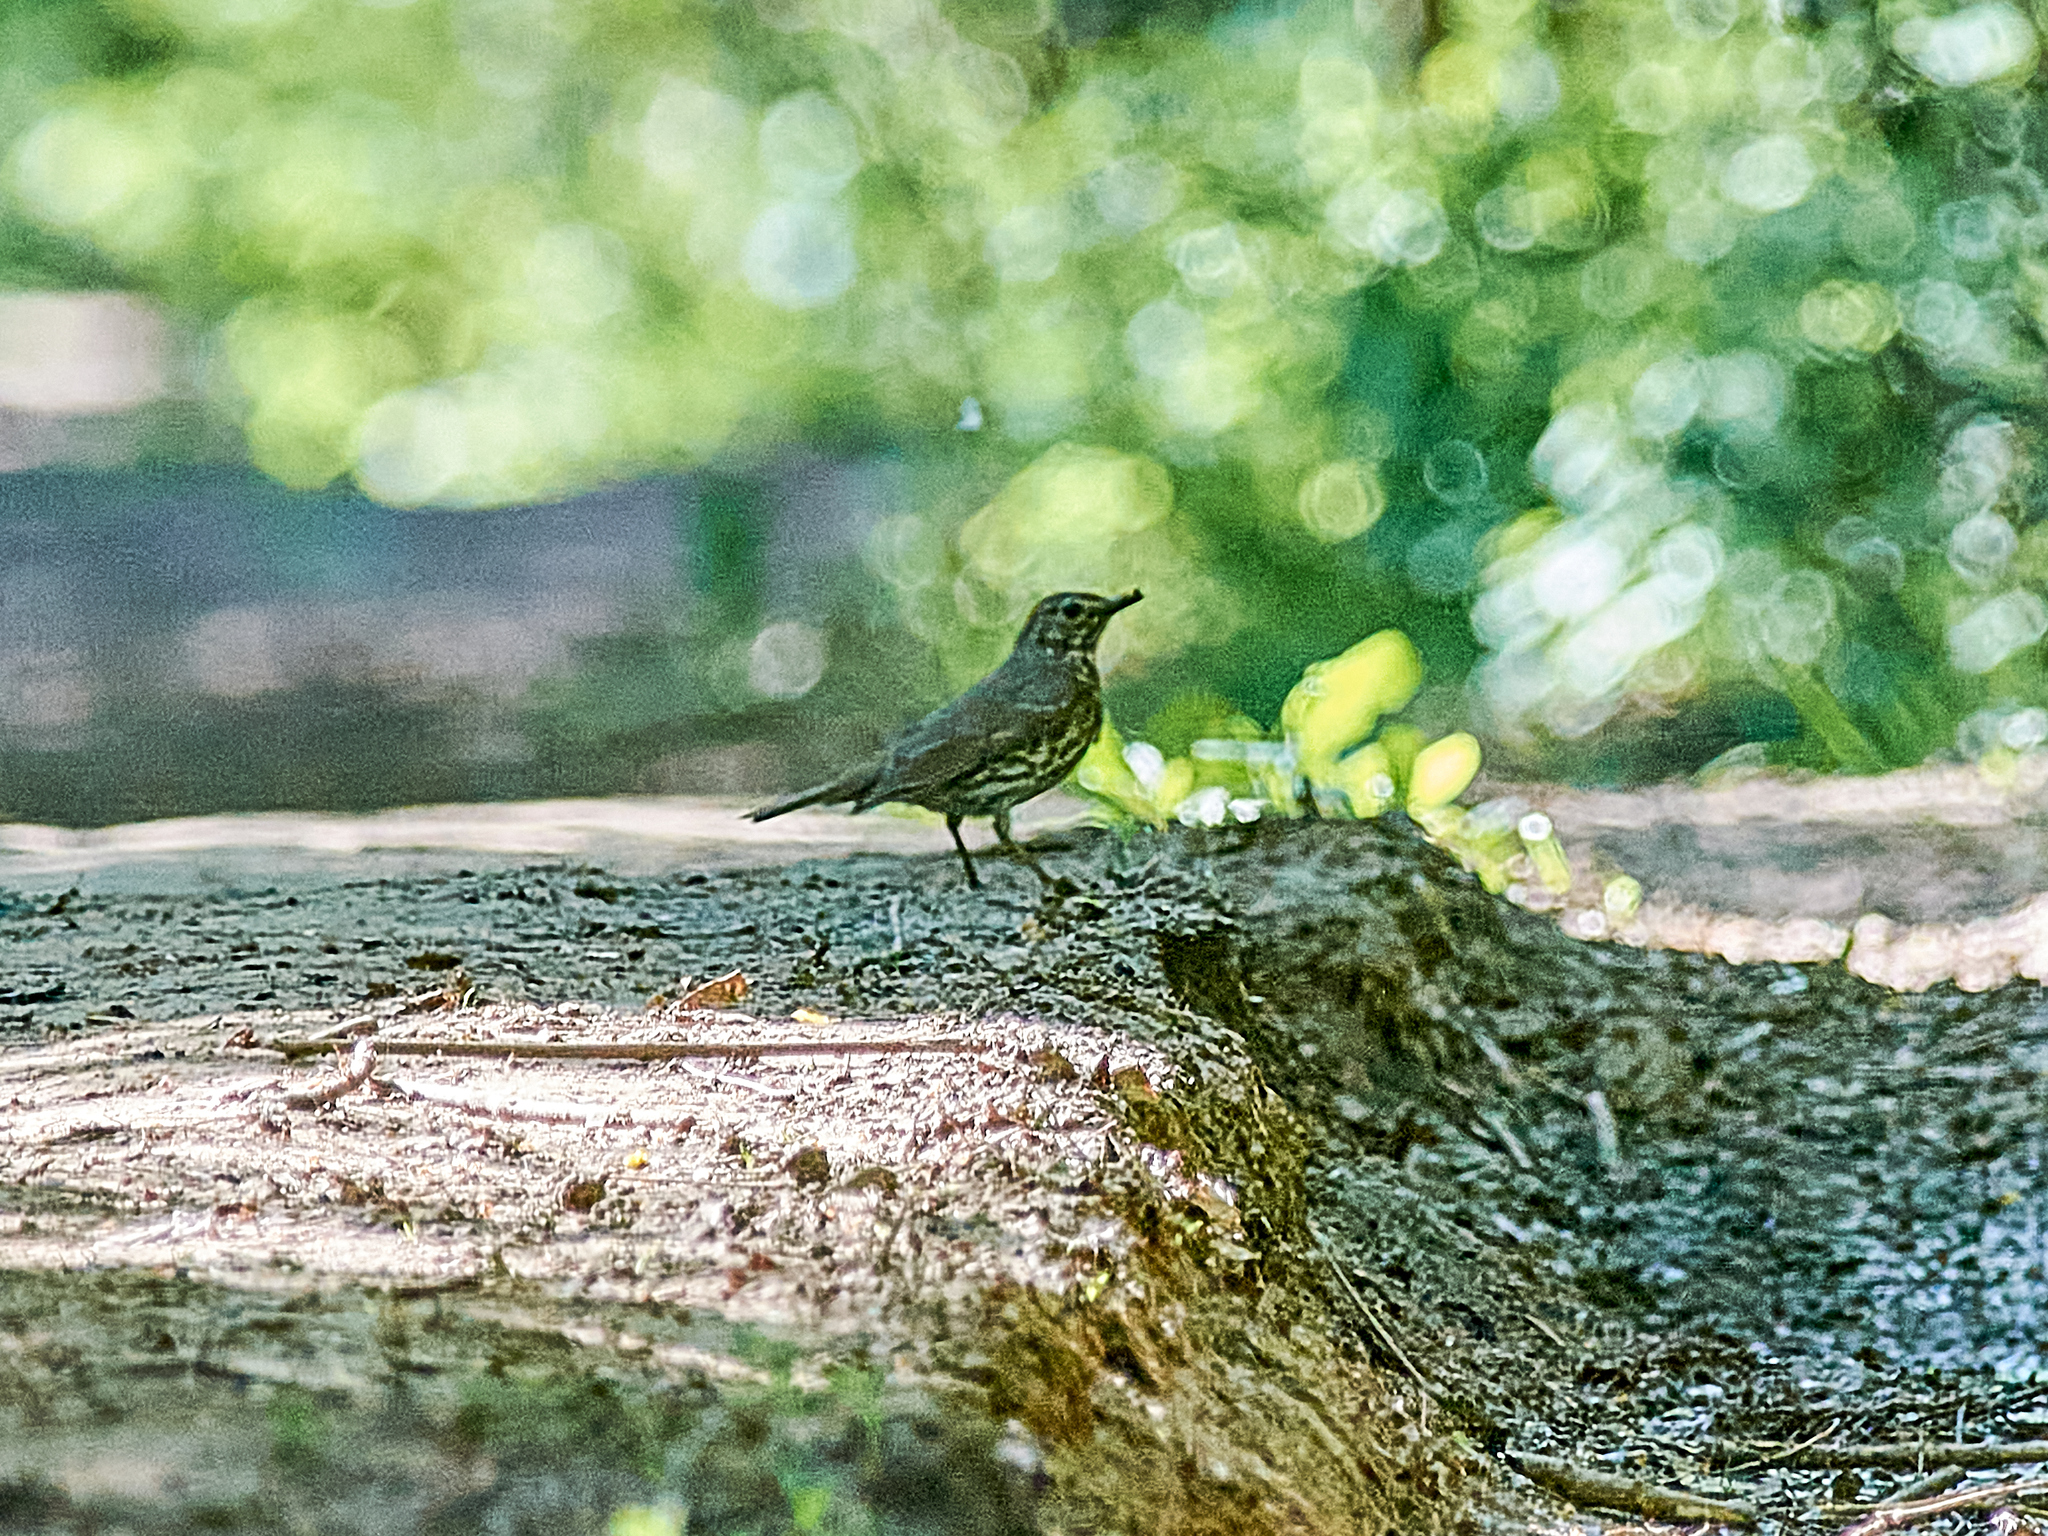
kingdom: Animalia
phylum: Chordata
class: Aves
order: Passeriformes
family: Turdidae
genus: Turdus
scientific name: Turdus philomelos
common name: Song thrush
